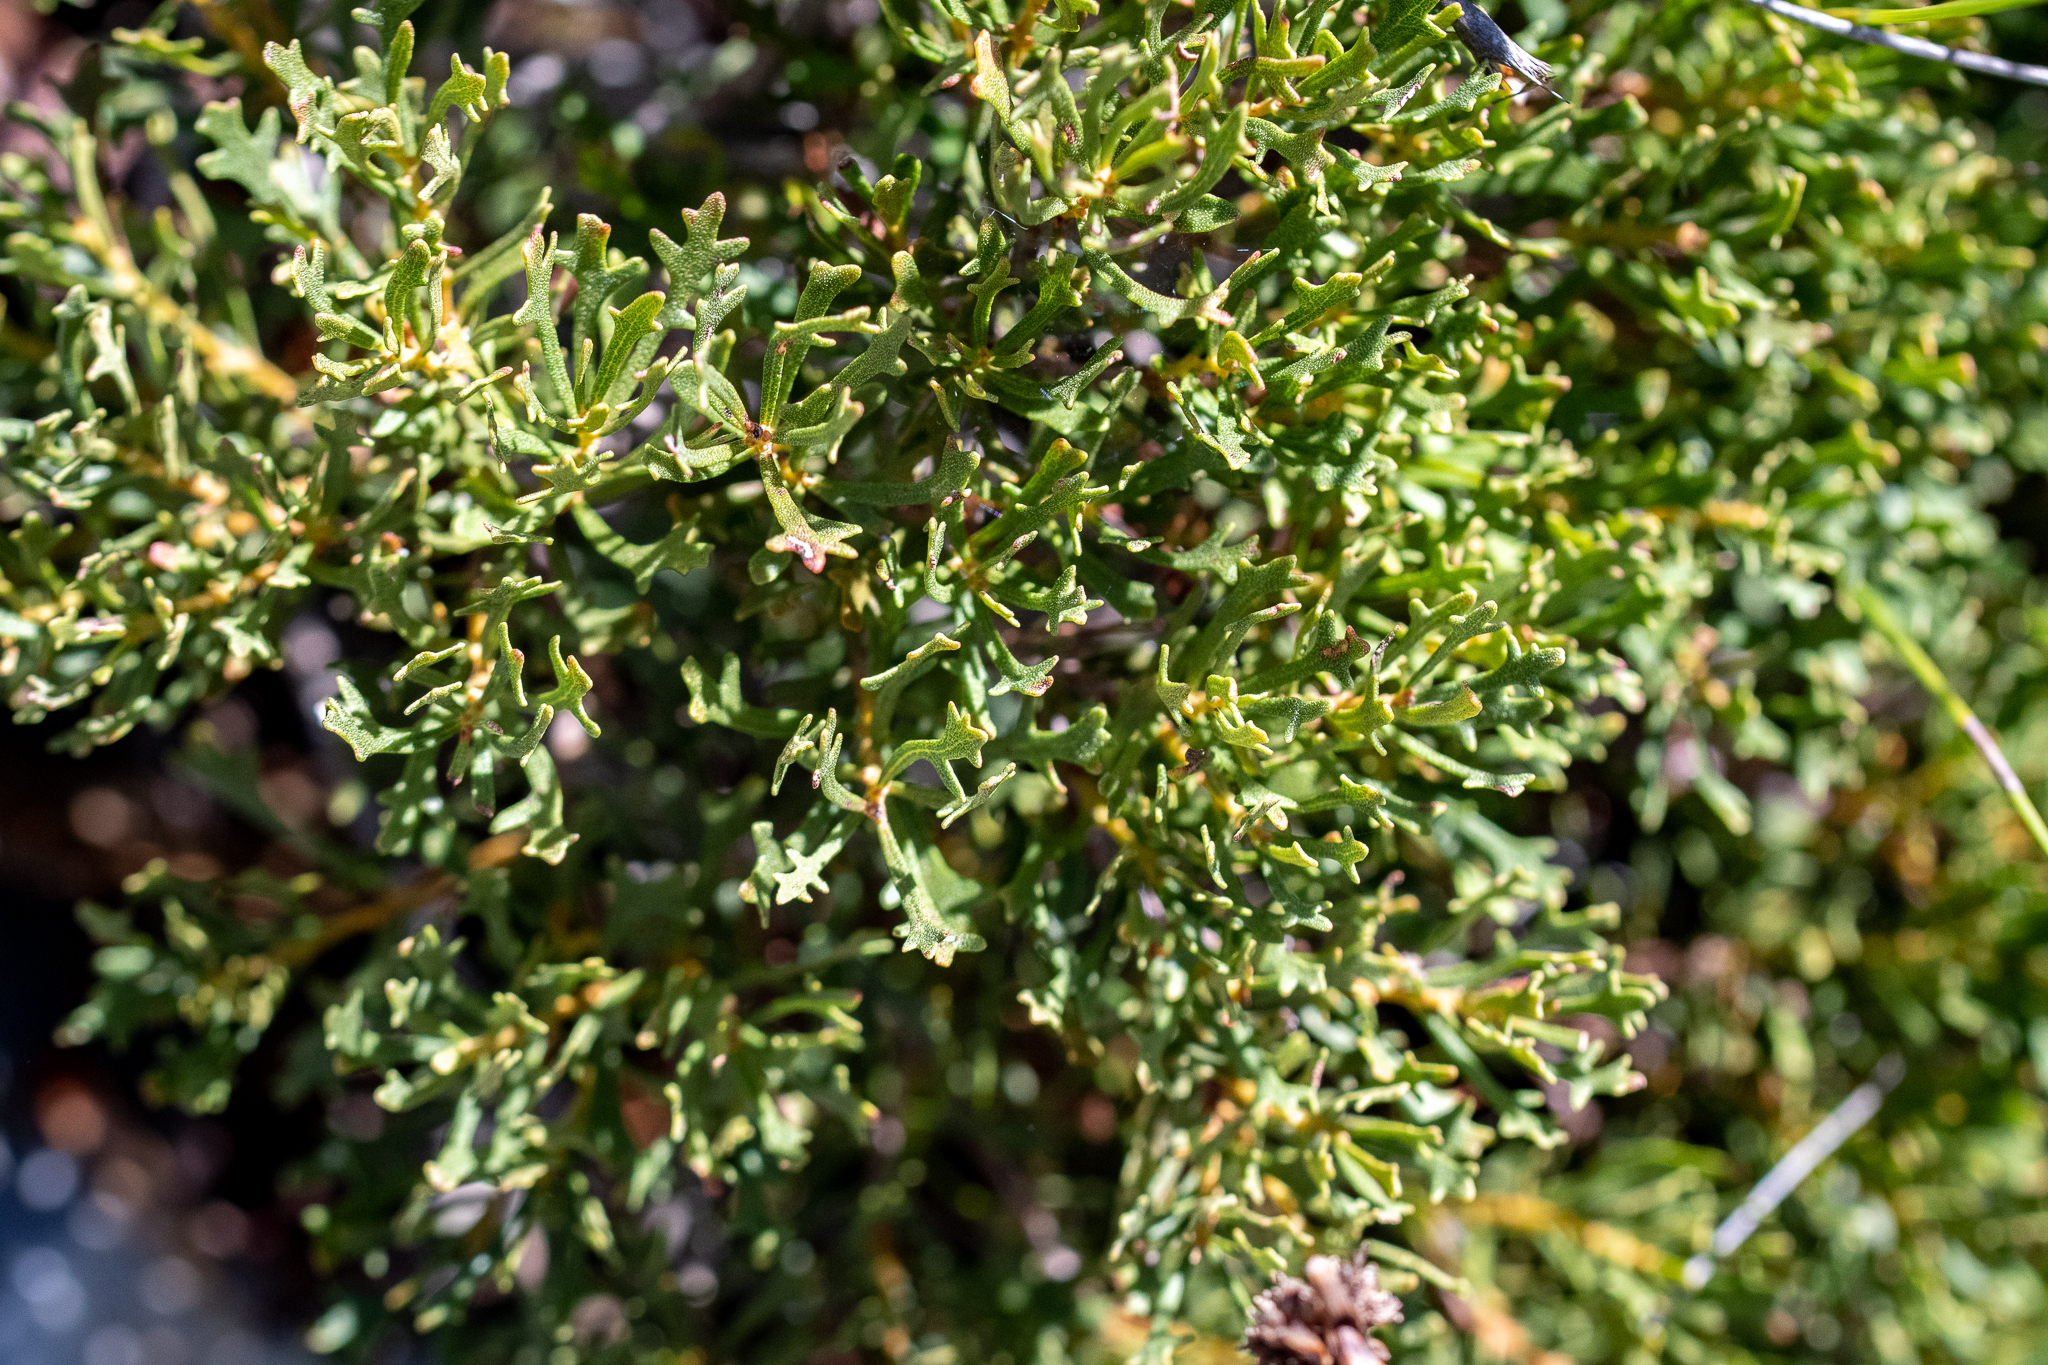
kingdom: Plantae
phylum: Tracheophyta
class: Magnoliopsida
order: Fagales
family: Myricaceae
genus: Morella
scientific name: Morella quercifolia
